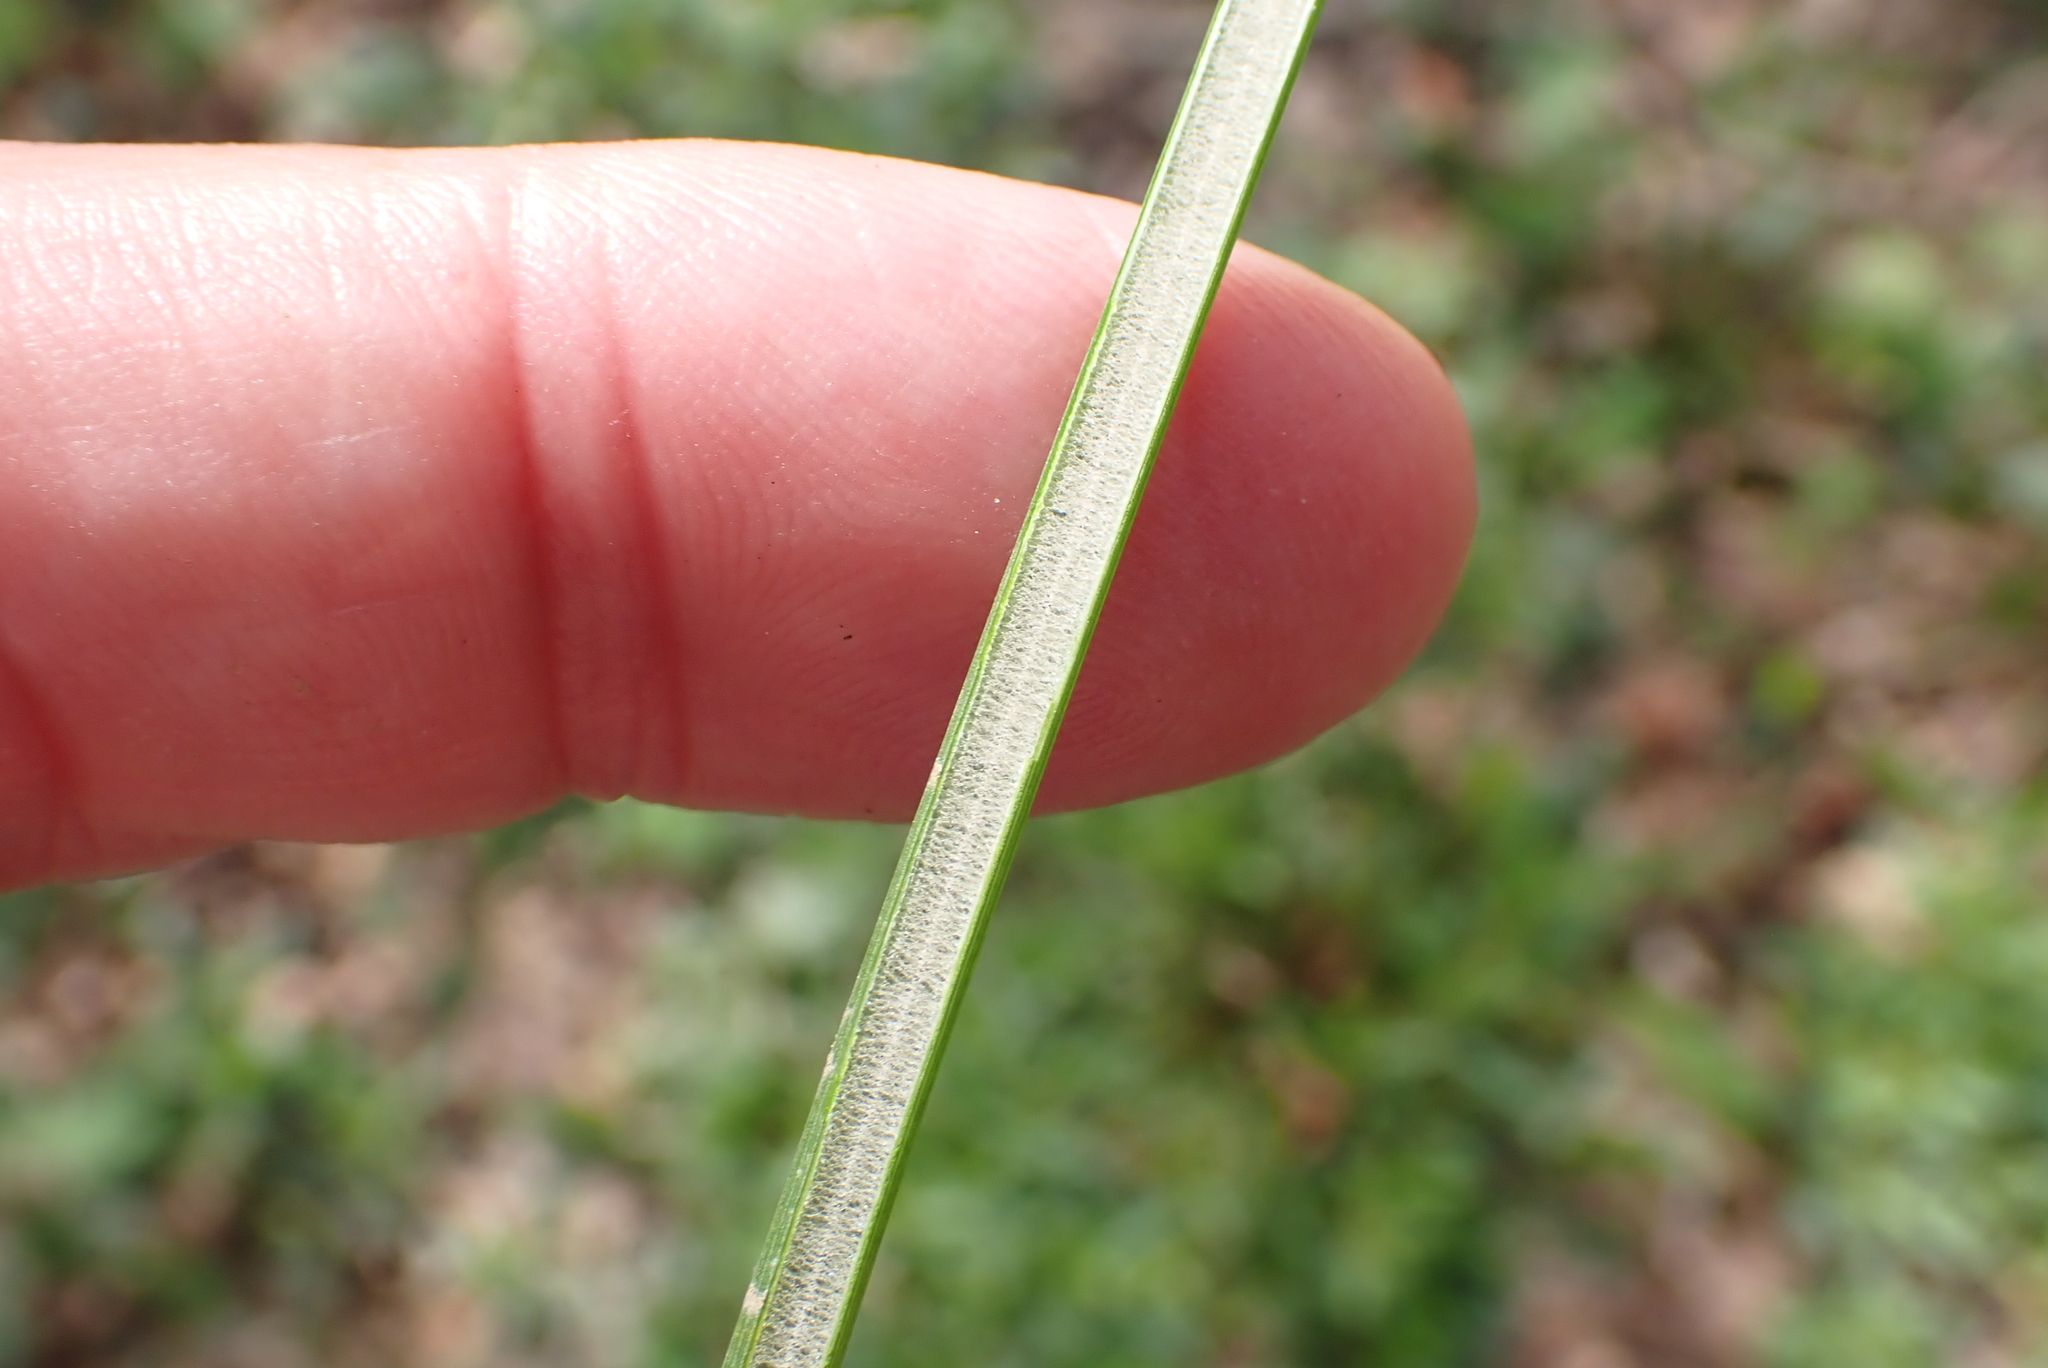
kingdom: Plantae
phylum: Tracheophyta
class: Liliopsida
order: Poales
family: Juncaceae
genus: Juncus
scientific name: Juncus effusus
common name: Soft rush
